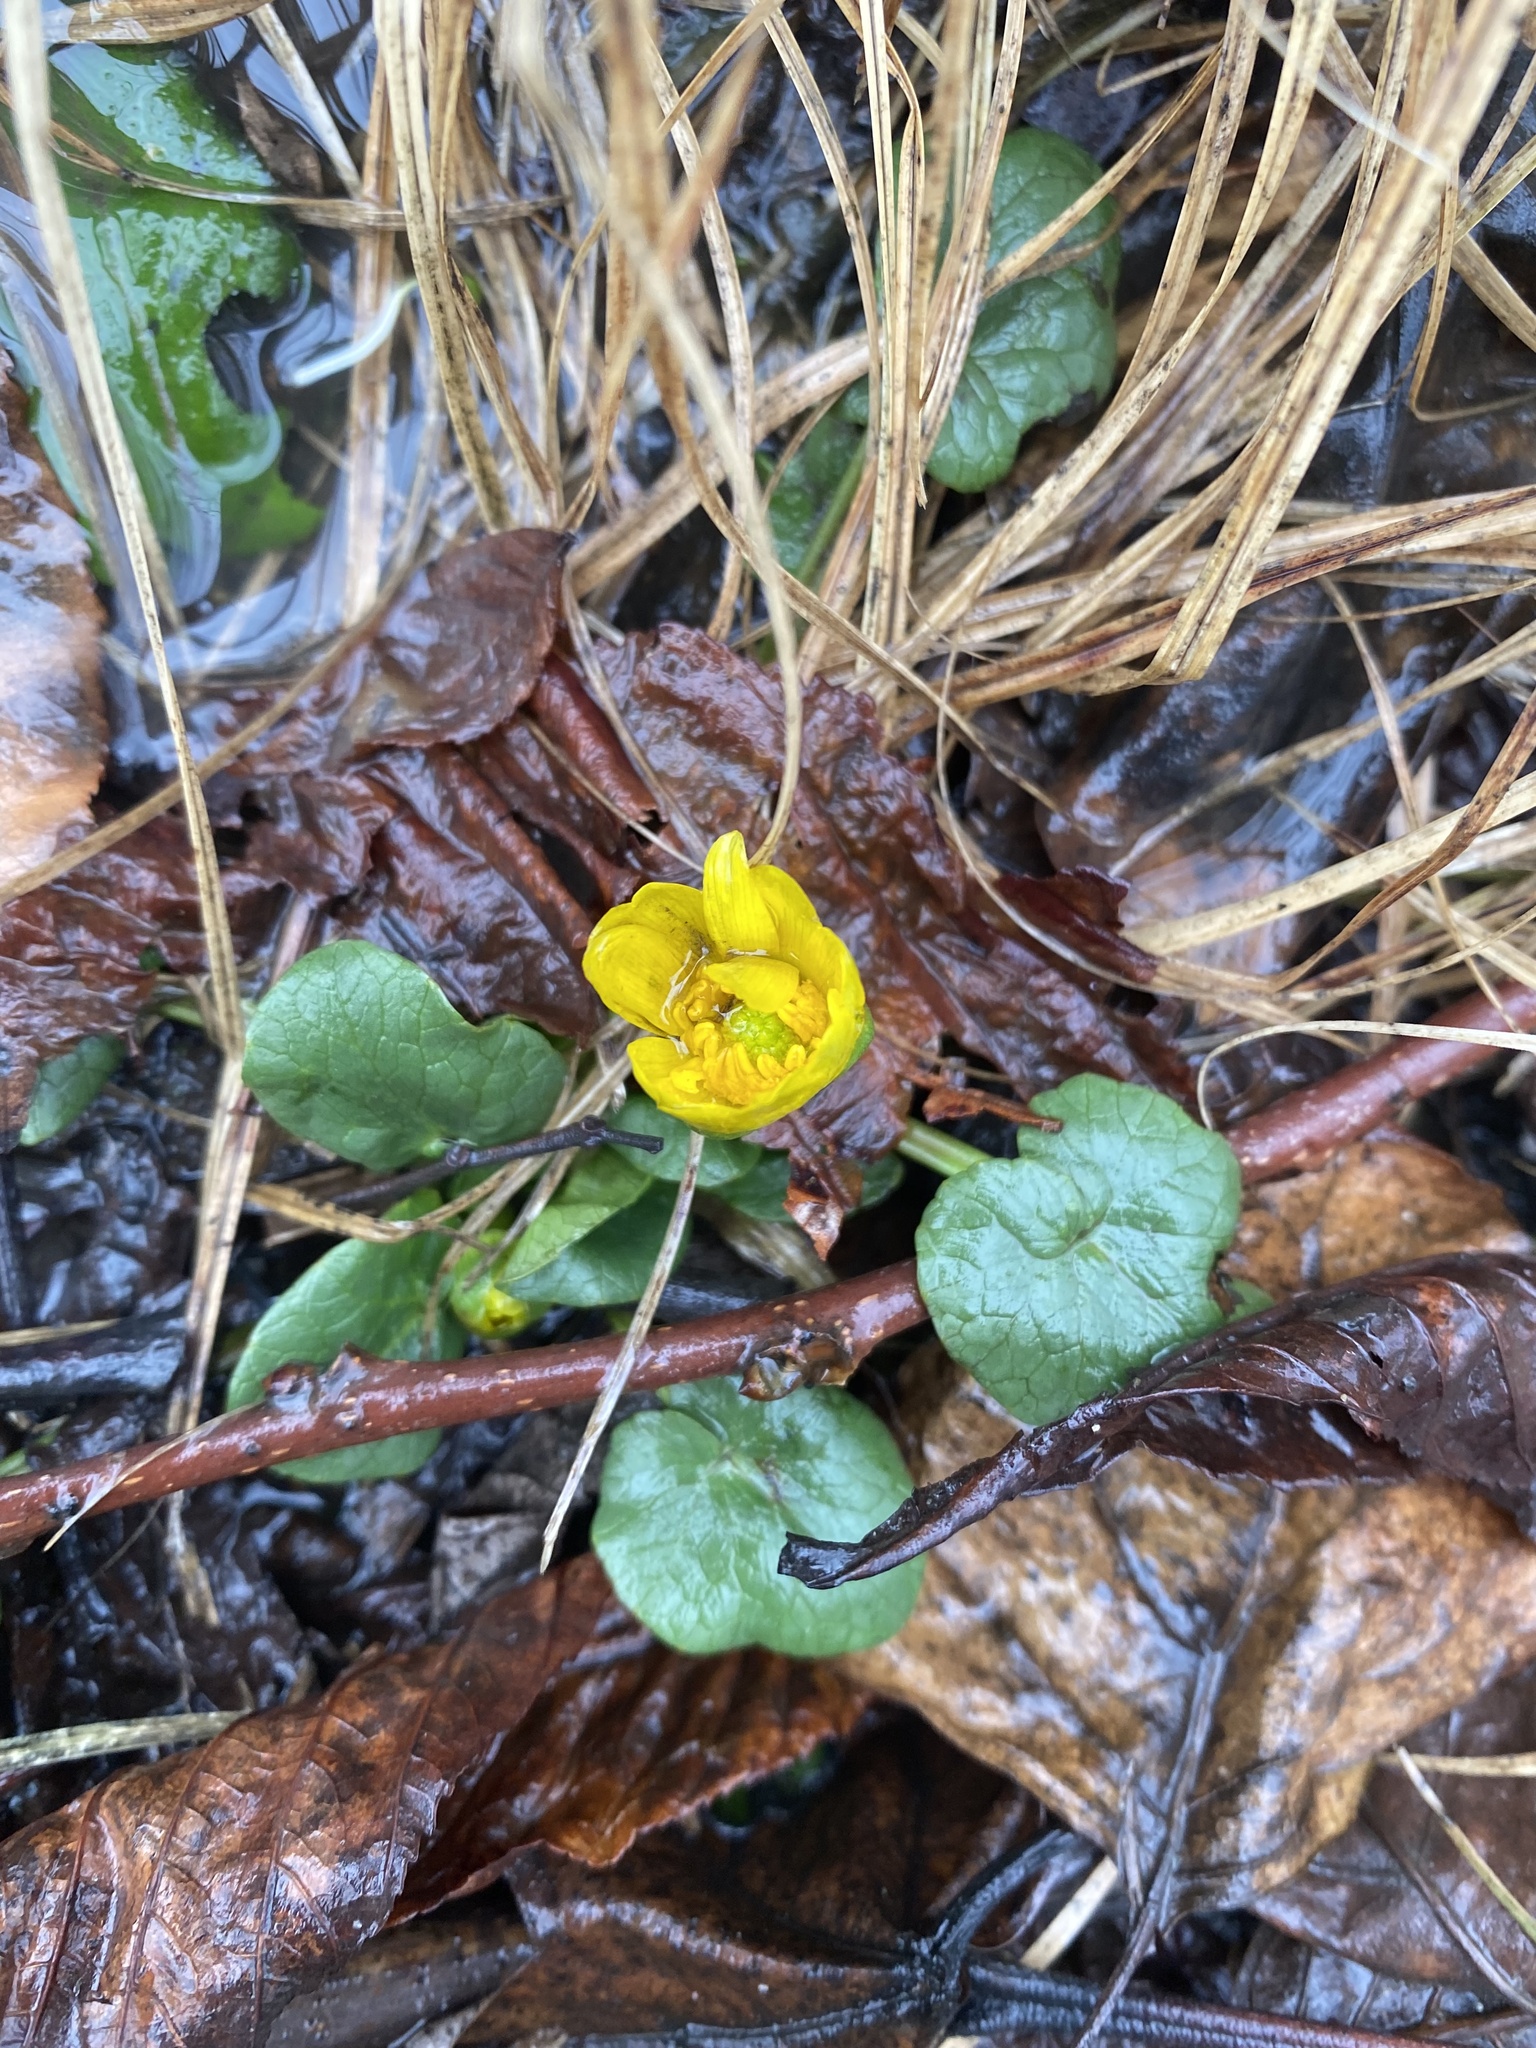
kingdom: Plantae
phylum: Tracheophyta
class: Magnoliopsida
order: Ranunculales
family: Ranunculaceae
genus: Ficaria
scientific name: Ficaria verna
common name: Lesser celandine
